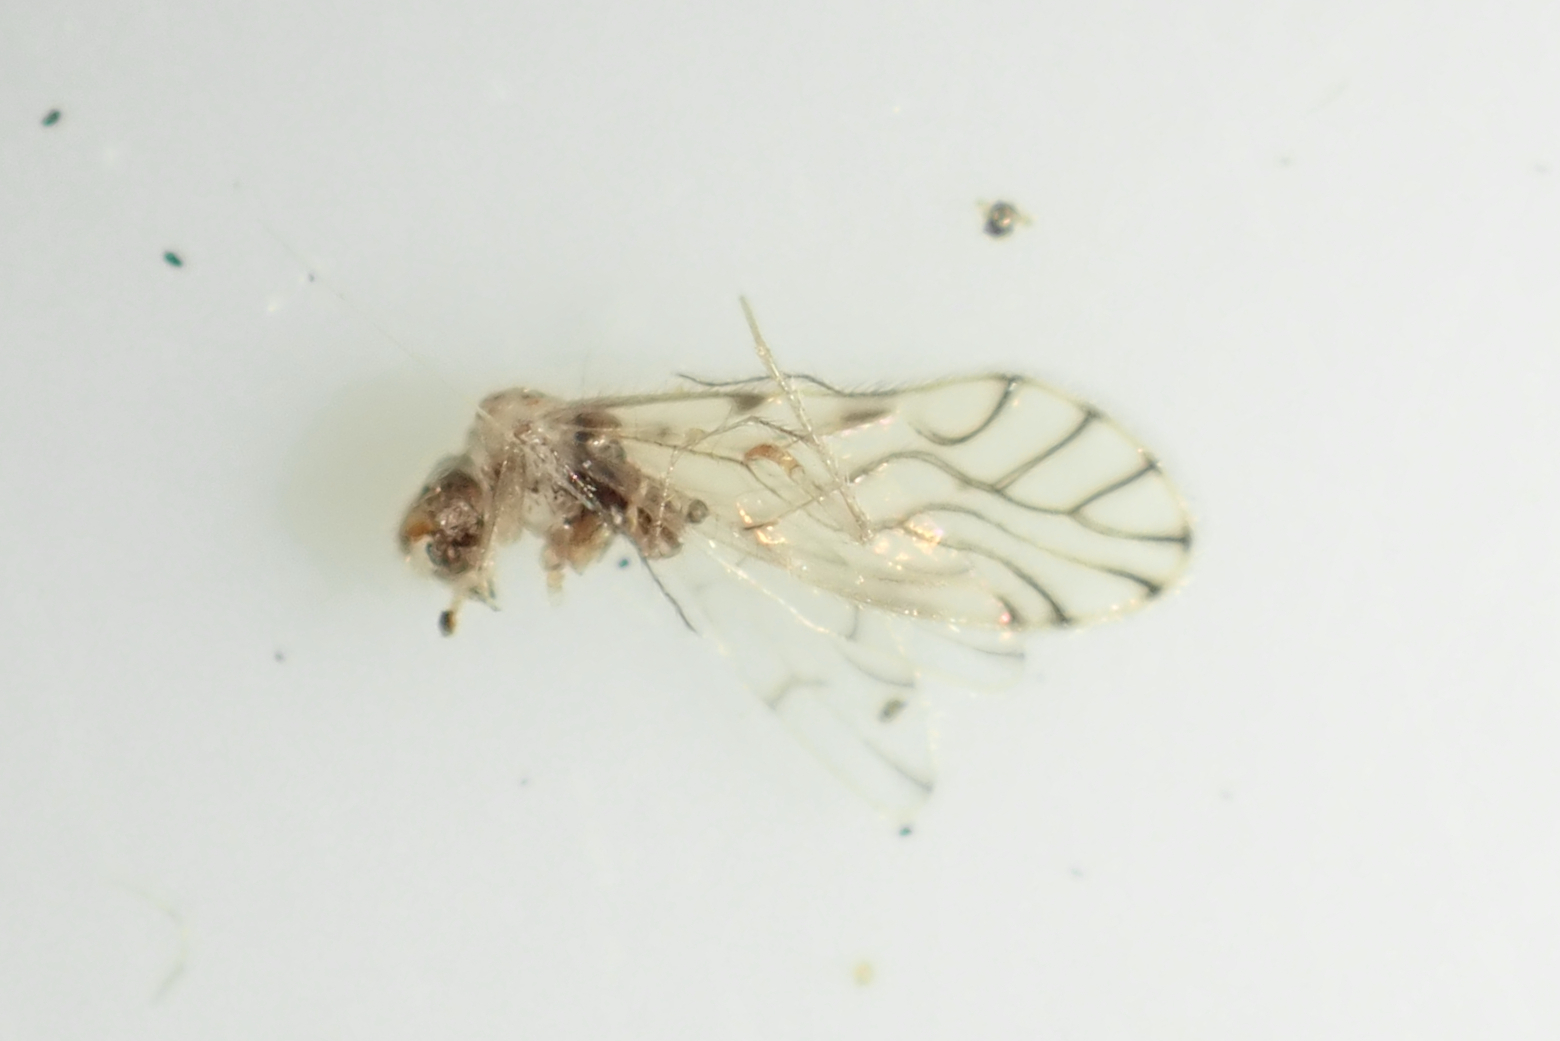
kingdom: Animalia
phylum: Arthropoda
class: Insecta
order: Psocodea
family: Pseudocaeciliidae
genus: Lobocaecilius
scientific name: Lobocaecilius monicus
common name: Barklice
